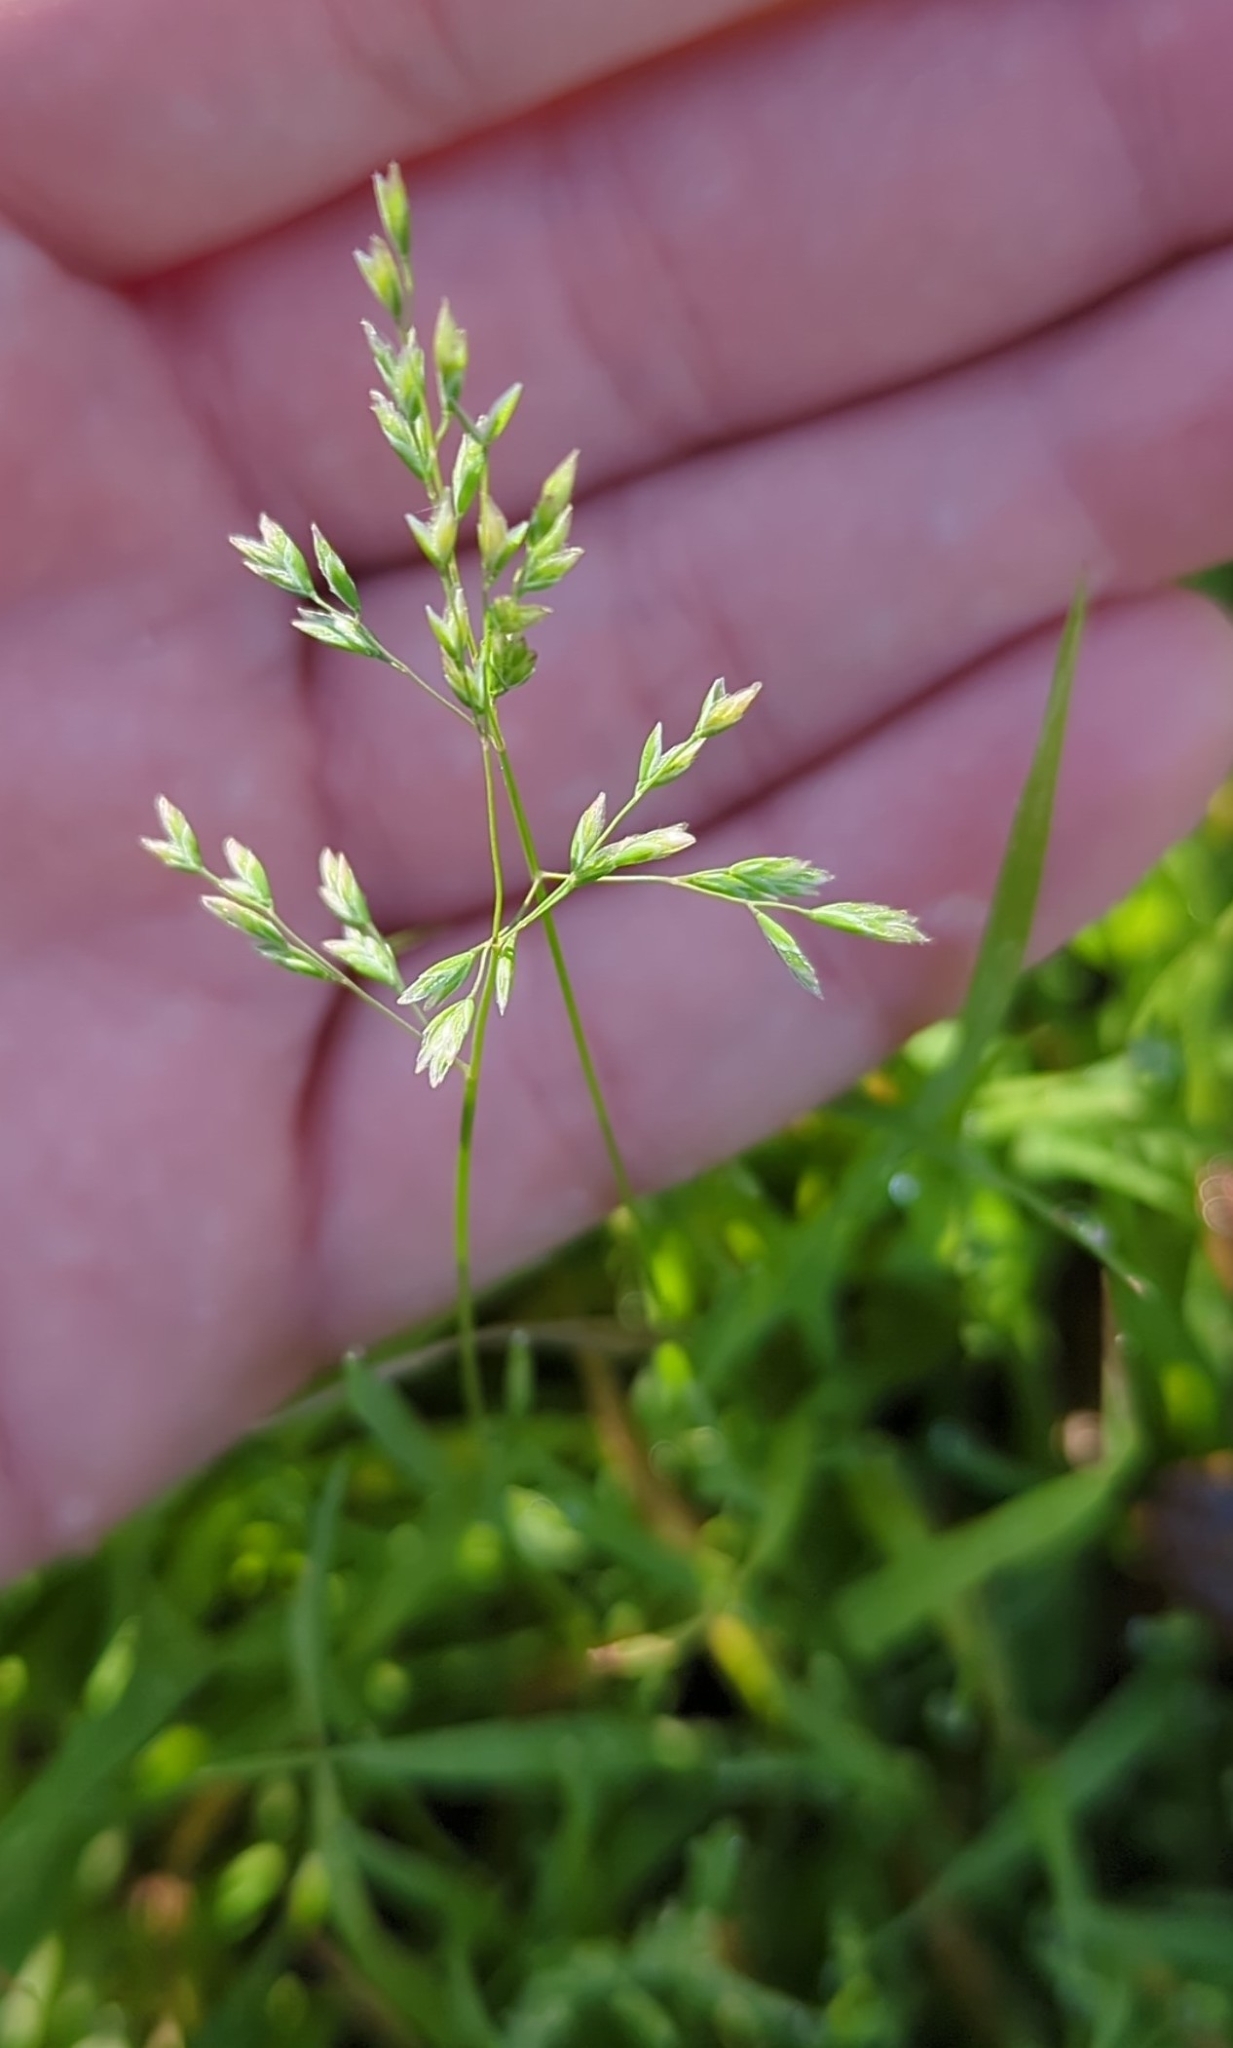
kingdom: Plantae
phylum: Tracheophyta
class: Liliopsida
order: Poales
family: Poaceae
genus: Poa
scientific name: Poa annua
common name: Annual bluegrass
